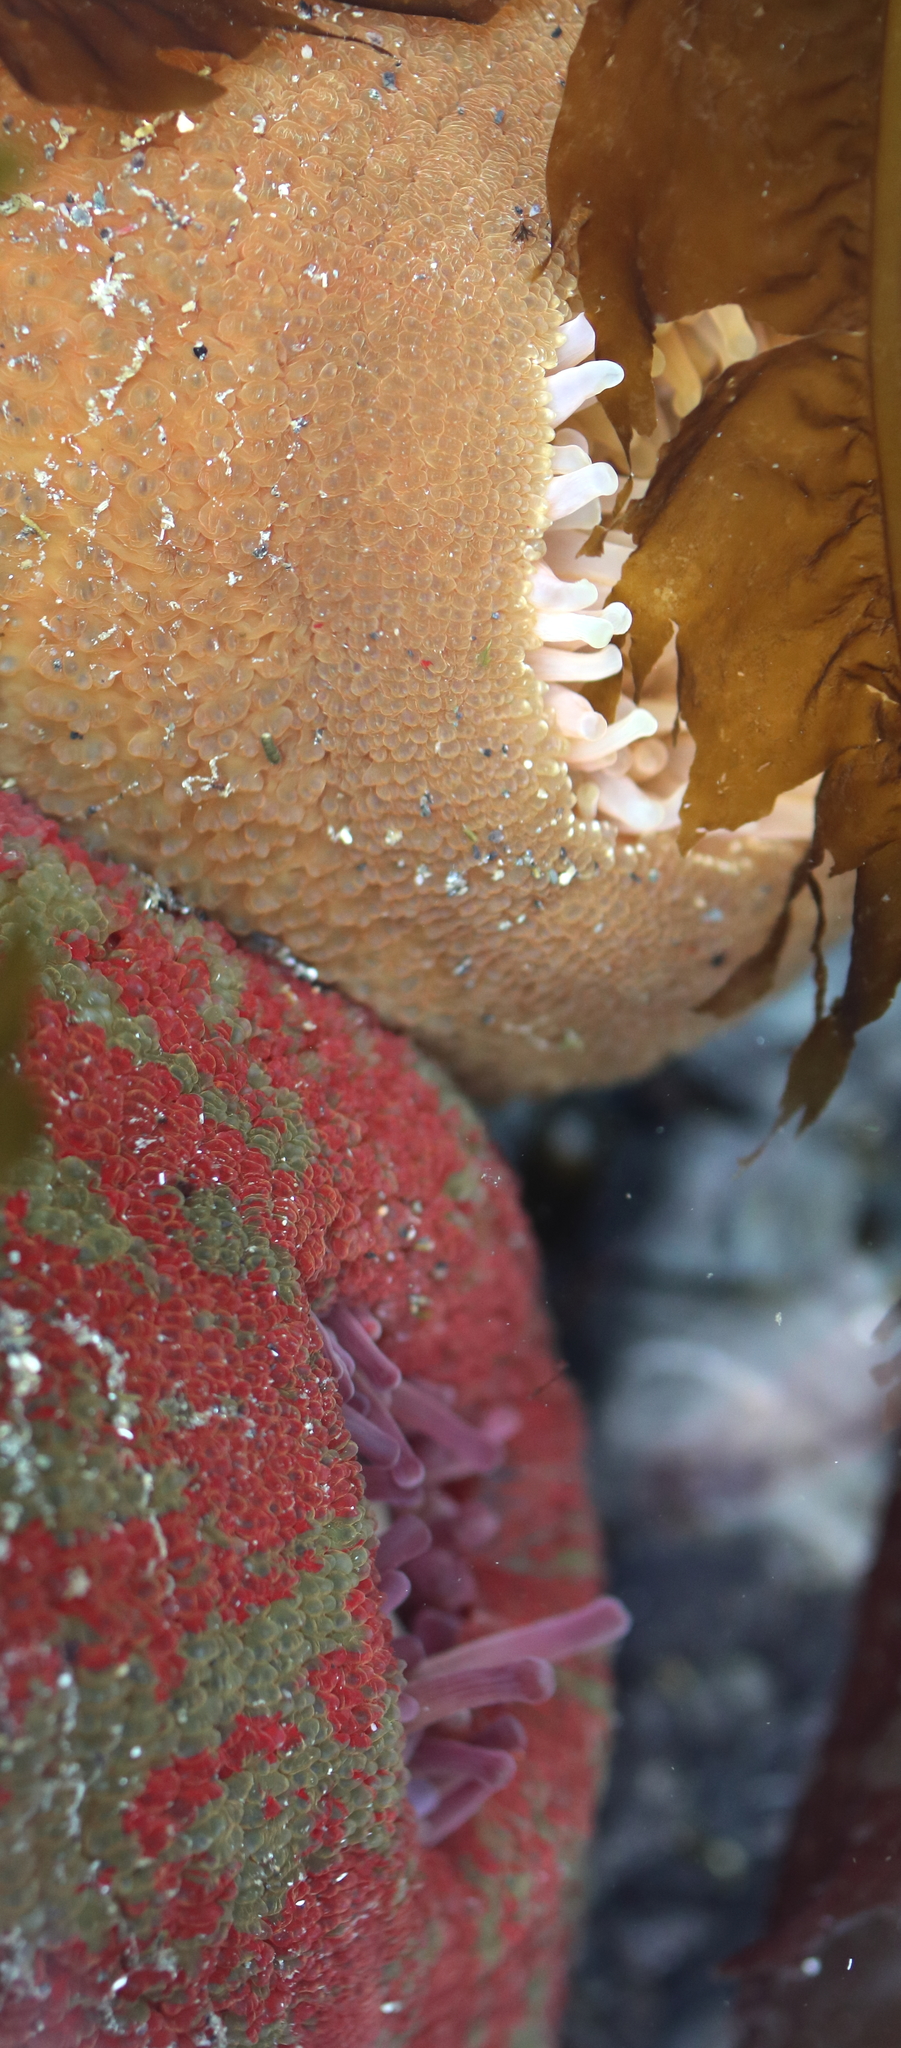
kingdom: Animalia
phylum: Cnidaria
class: Anthozoa
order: Actiniaria
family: Actiniidae
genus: Urticina
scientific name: Urticina grebelnyi
